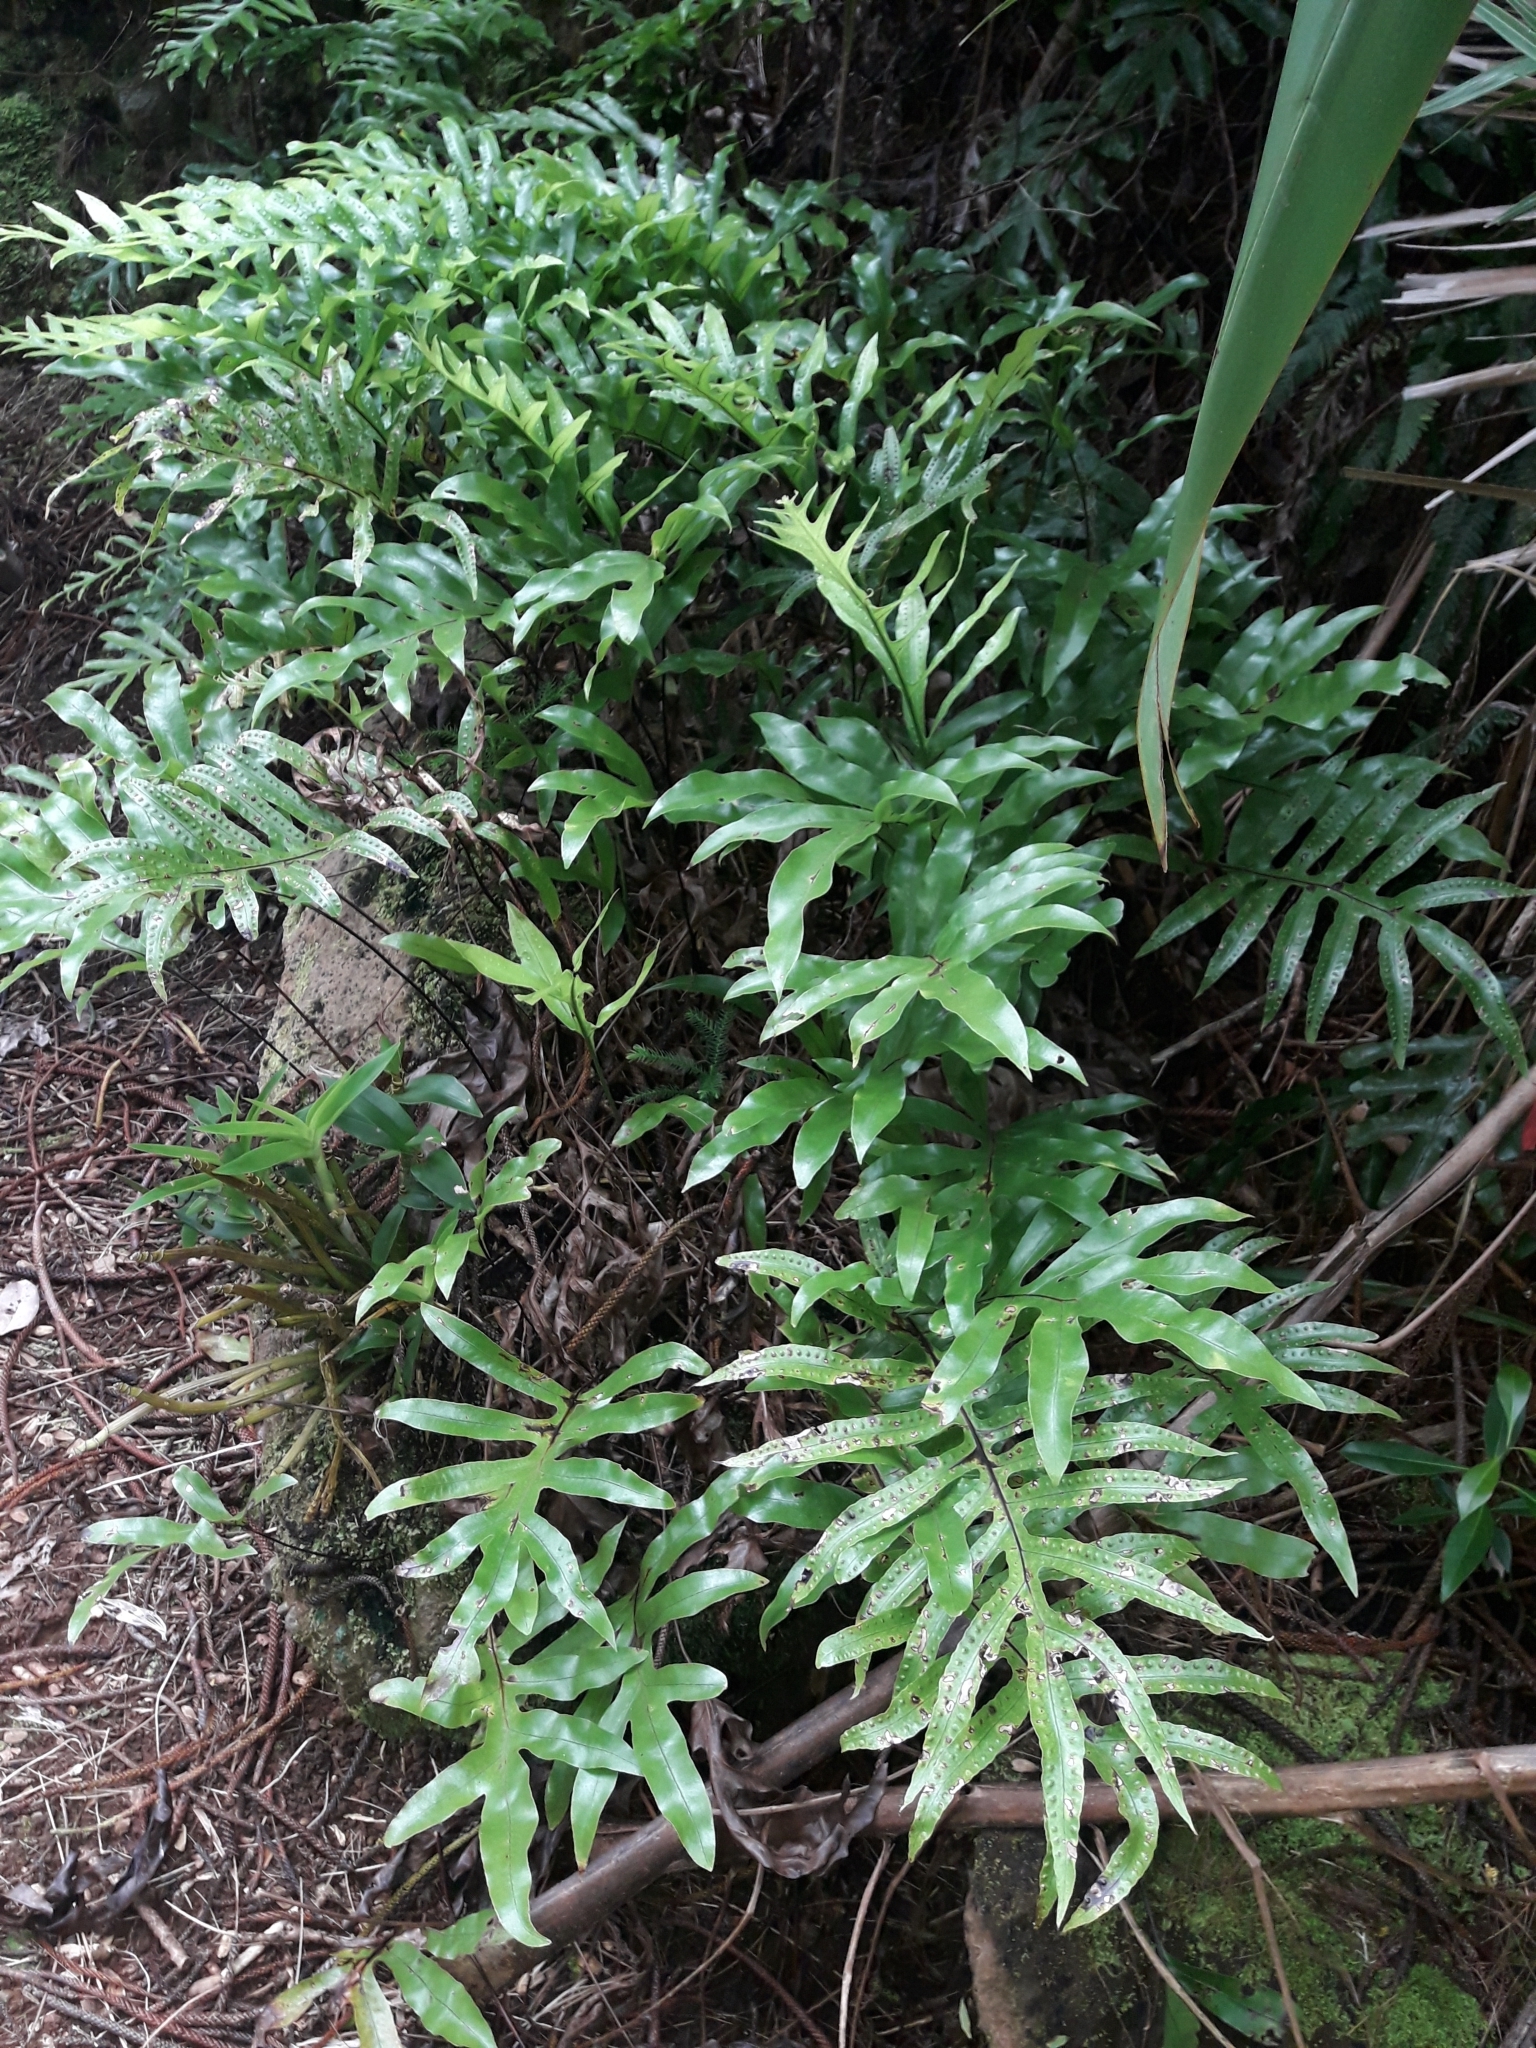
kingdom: Plantae
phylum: Tracheophyta
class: Polypodiopsida
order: Polypodiales
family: Polypodiaceae
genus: Lecanopteris
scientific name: Lecanopteris pustulata
